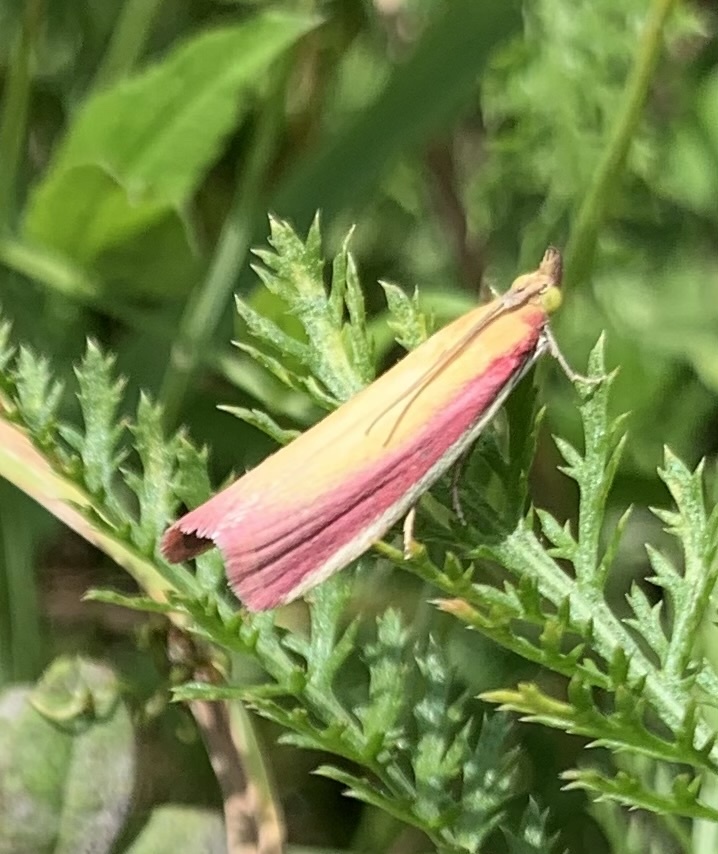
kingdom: Animalia
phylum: Arthropoda
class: Insecta
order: Lepidoptera
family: Pyralidae
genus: Oncocera
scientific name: Oncocera semirubella
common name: Rosy-striped knot-horn
